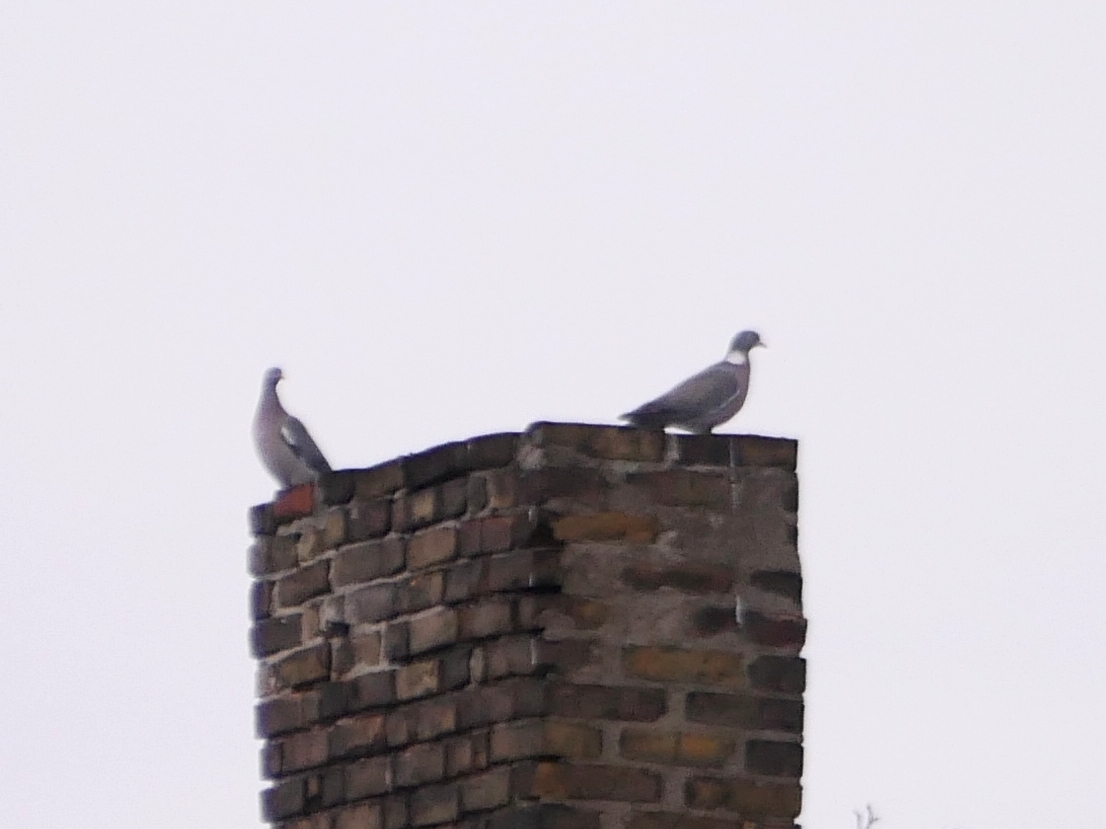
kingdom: Animalia
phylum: Chordata
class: Aves
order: Columbiformes
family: Columbidae
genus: Columba
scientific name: Columba palumbus
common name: Common wood pigeon
